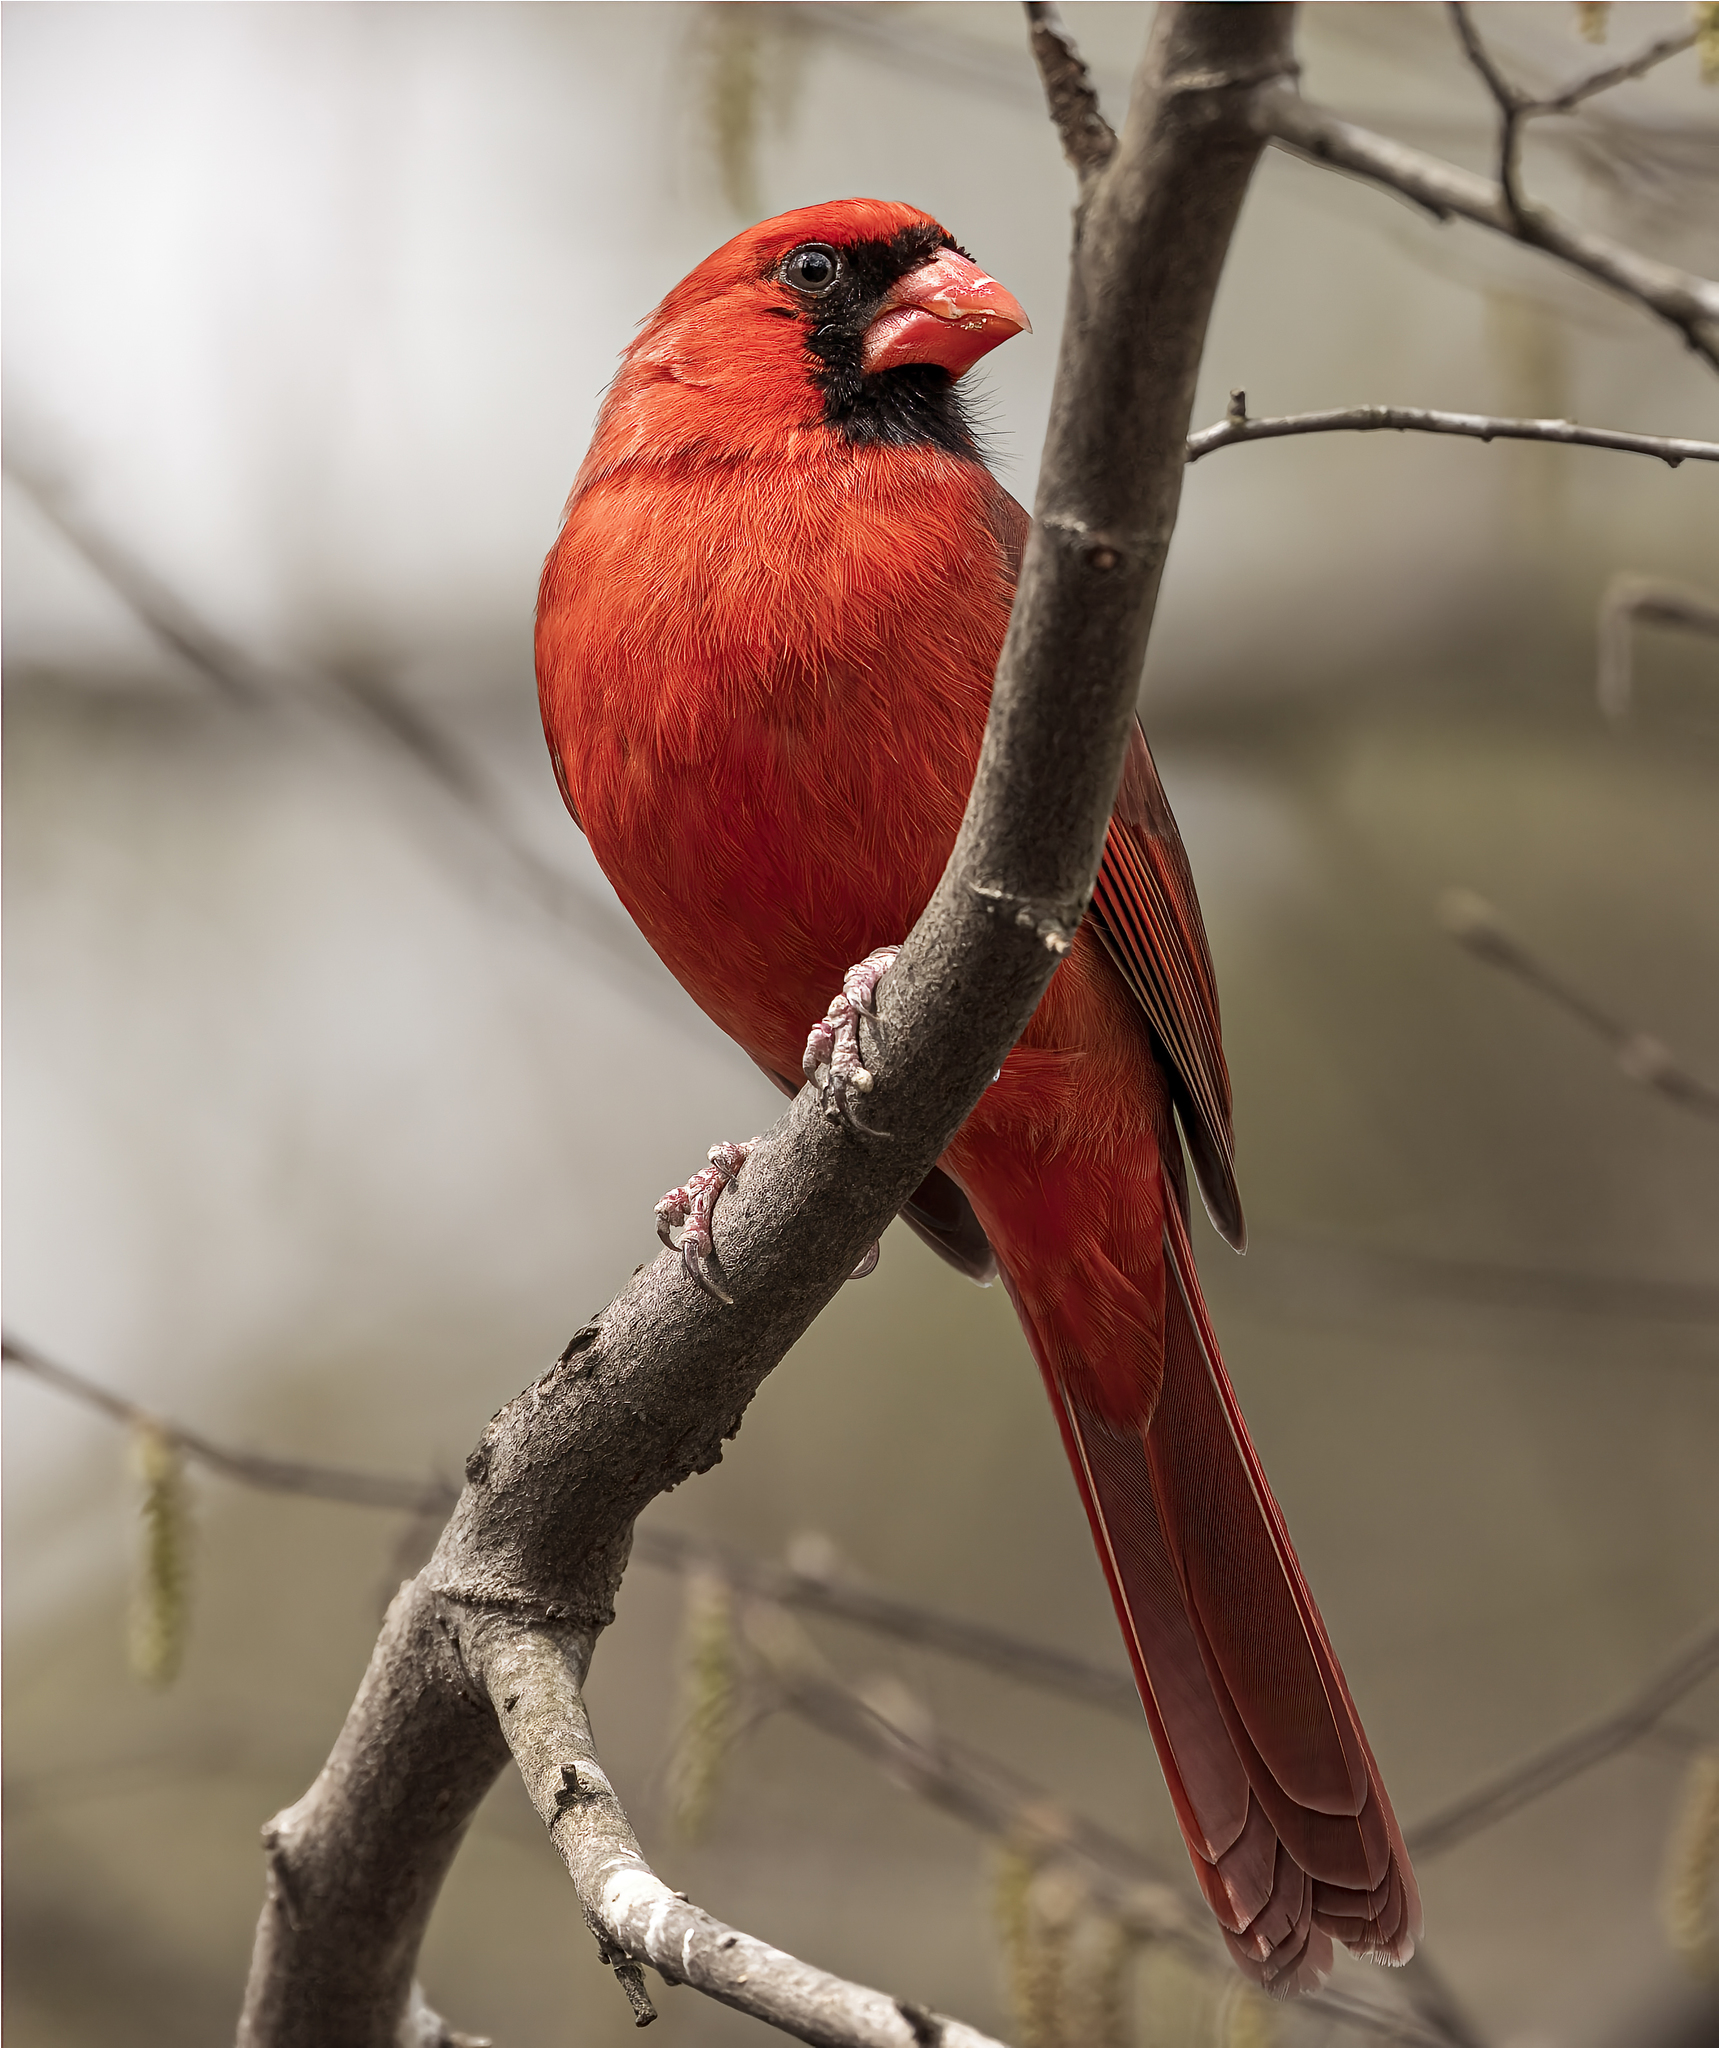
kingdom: Animalia
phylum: Chordata
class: Aves
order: Passeriformes
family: Cardinalidae
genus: Cardinalis
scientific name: Cardinalis cardinalis
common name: Northern cardinal
